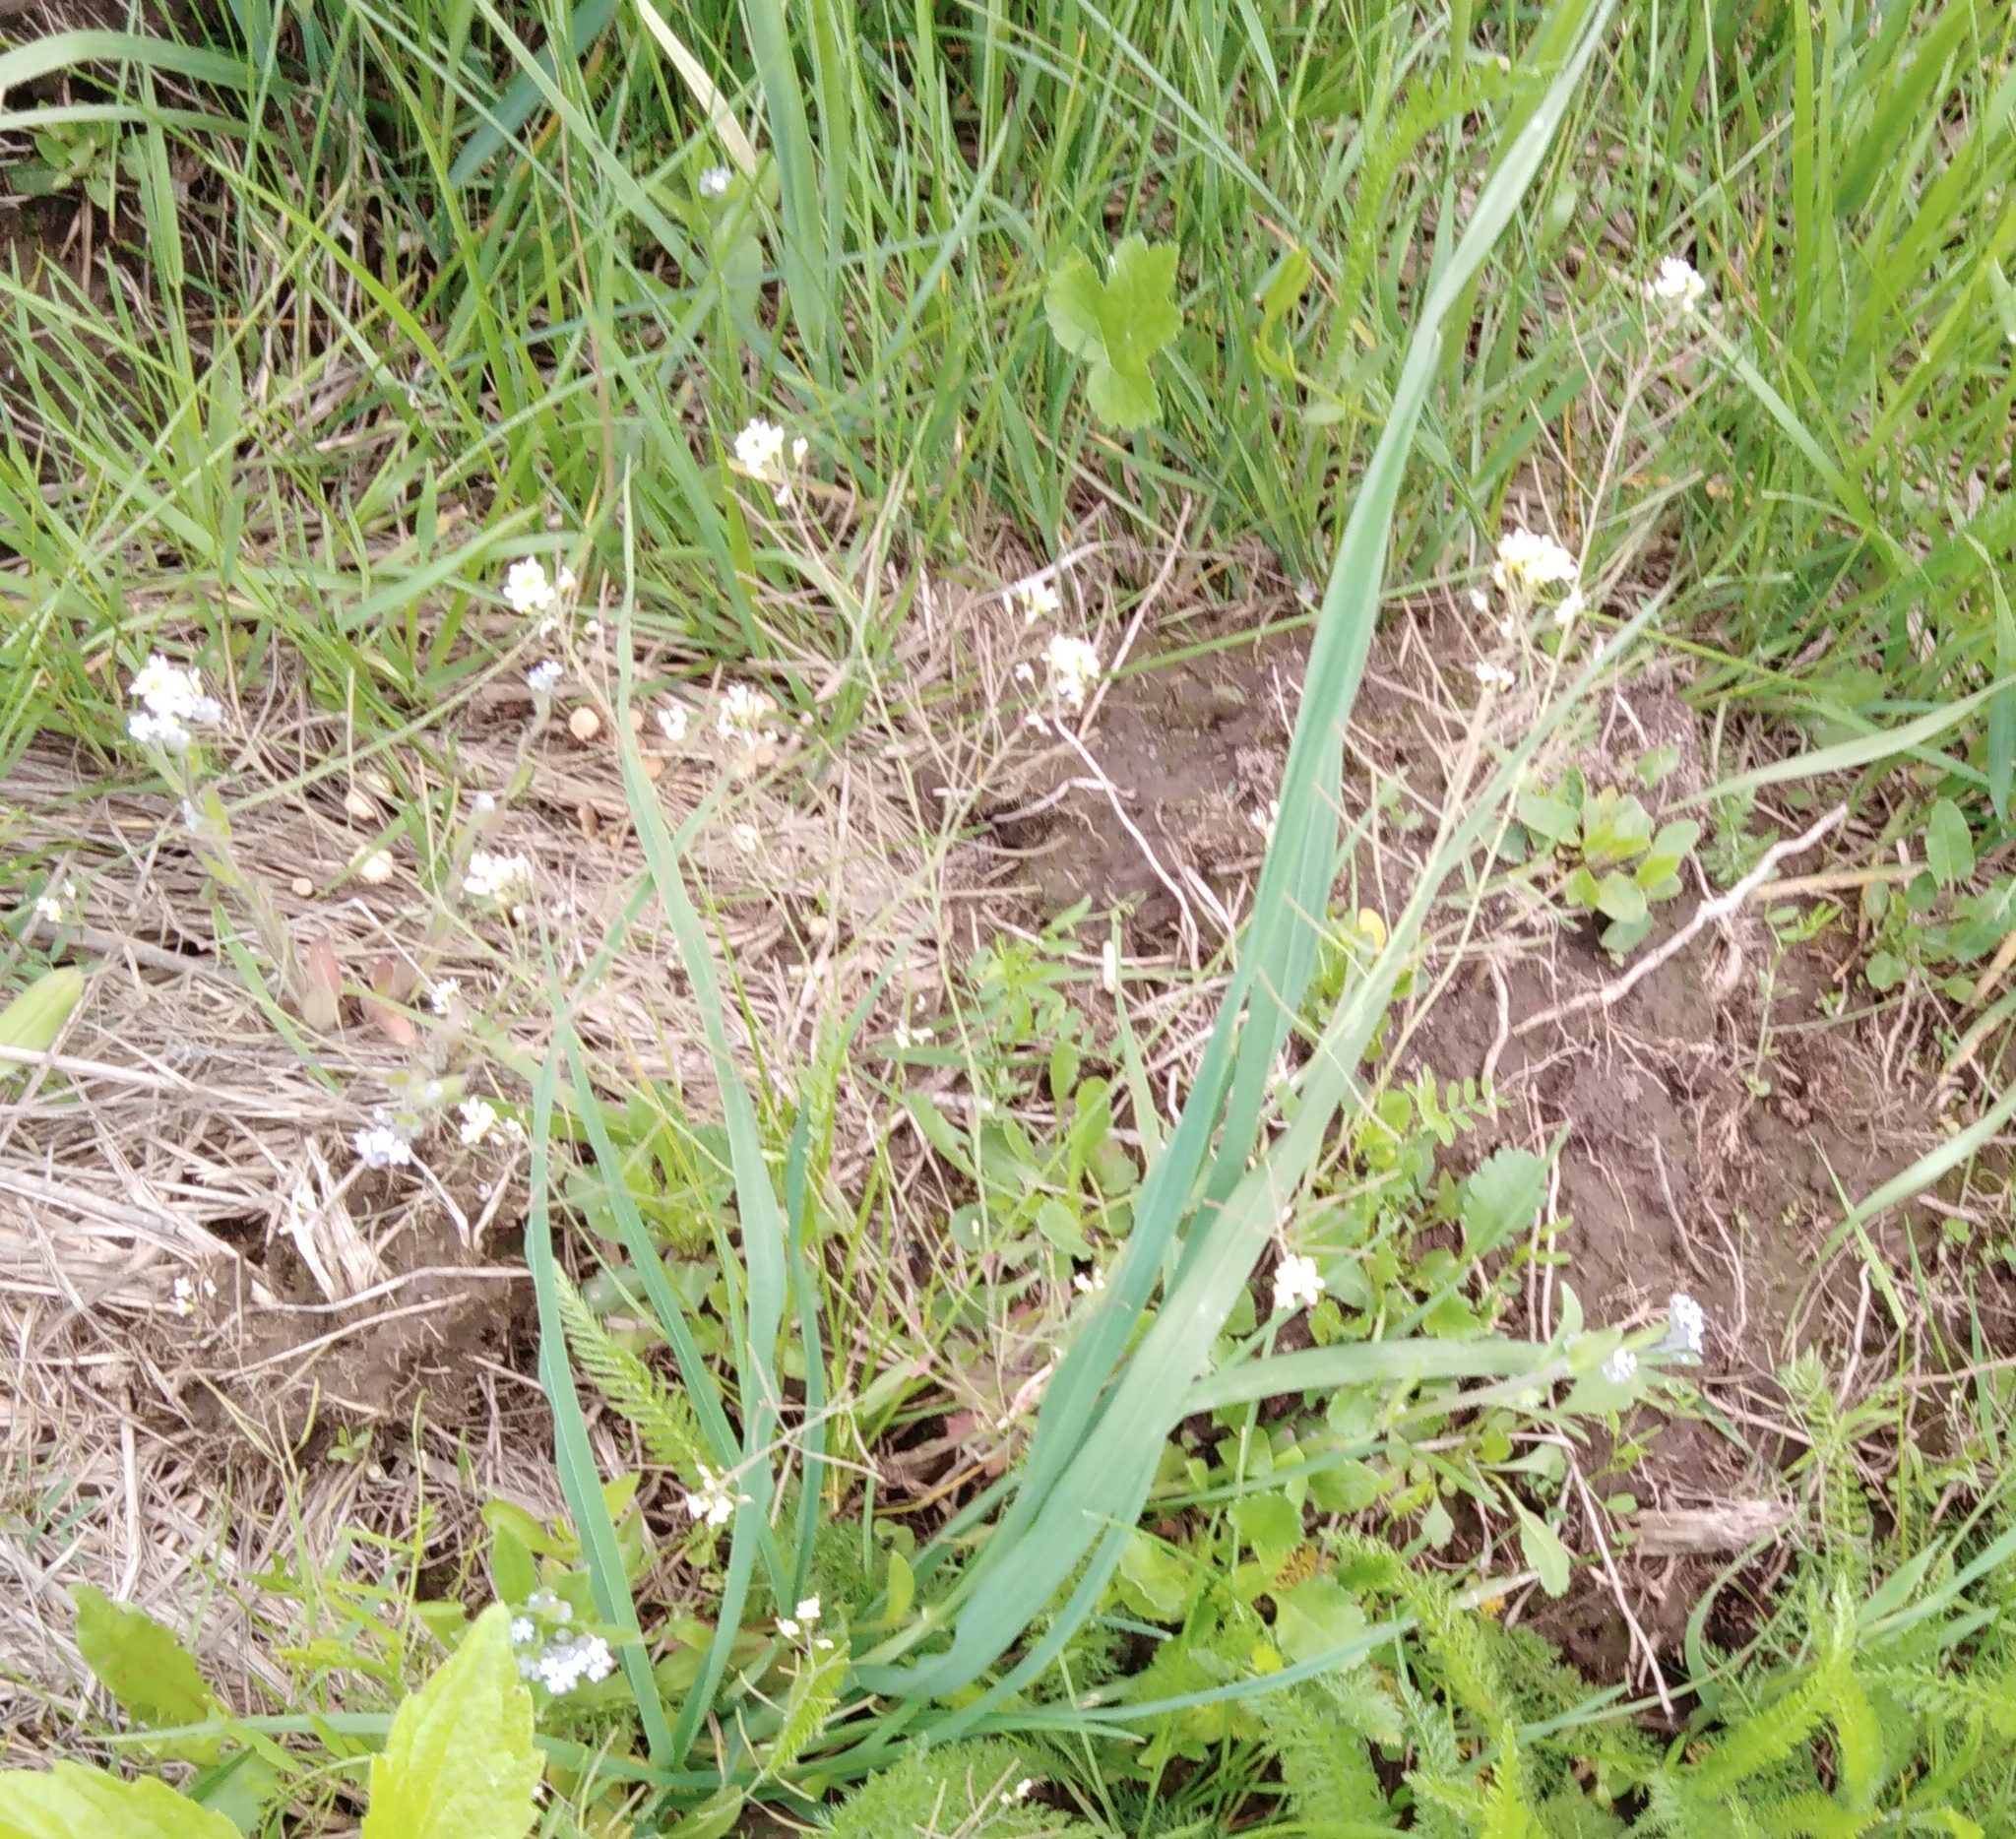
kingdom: Plantae
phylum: Tracheophyta
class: Magnoliopsida
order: Brassicales
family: Brassicaceae
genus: Arabidopsis
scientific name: Arabidopsis thaliana
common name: Thale cress
